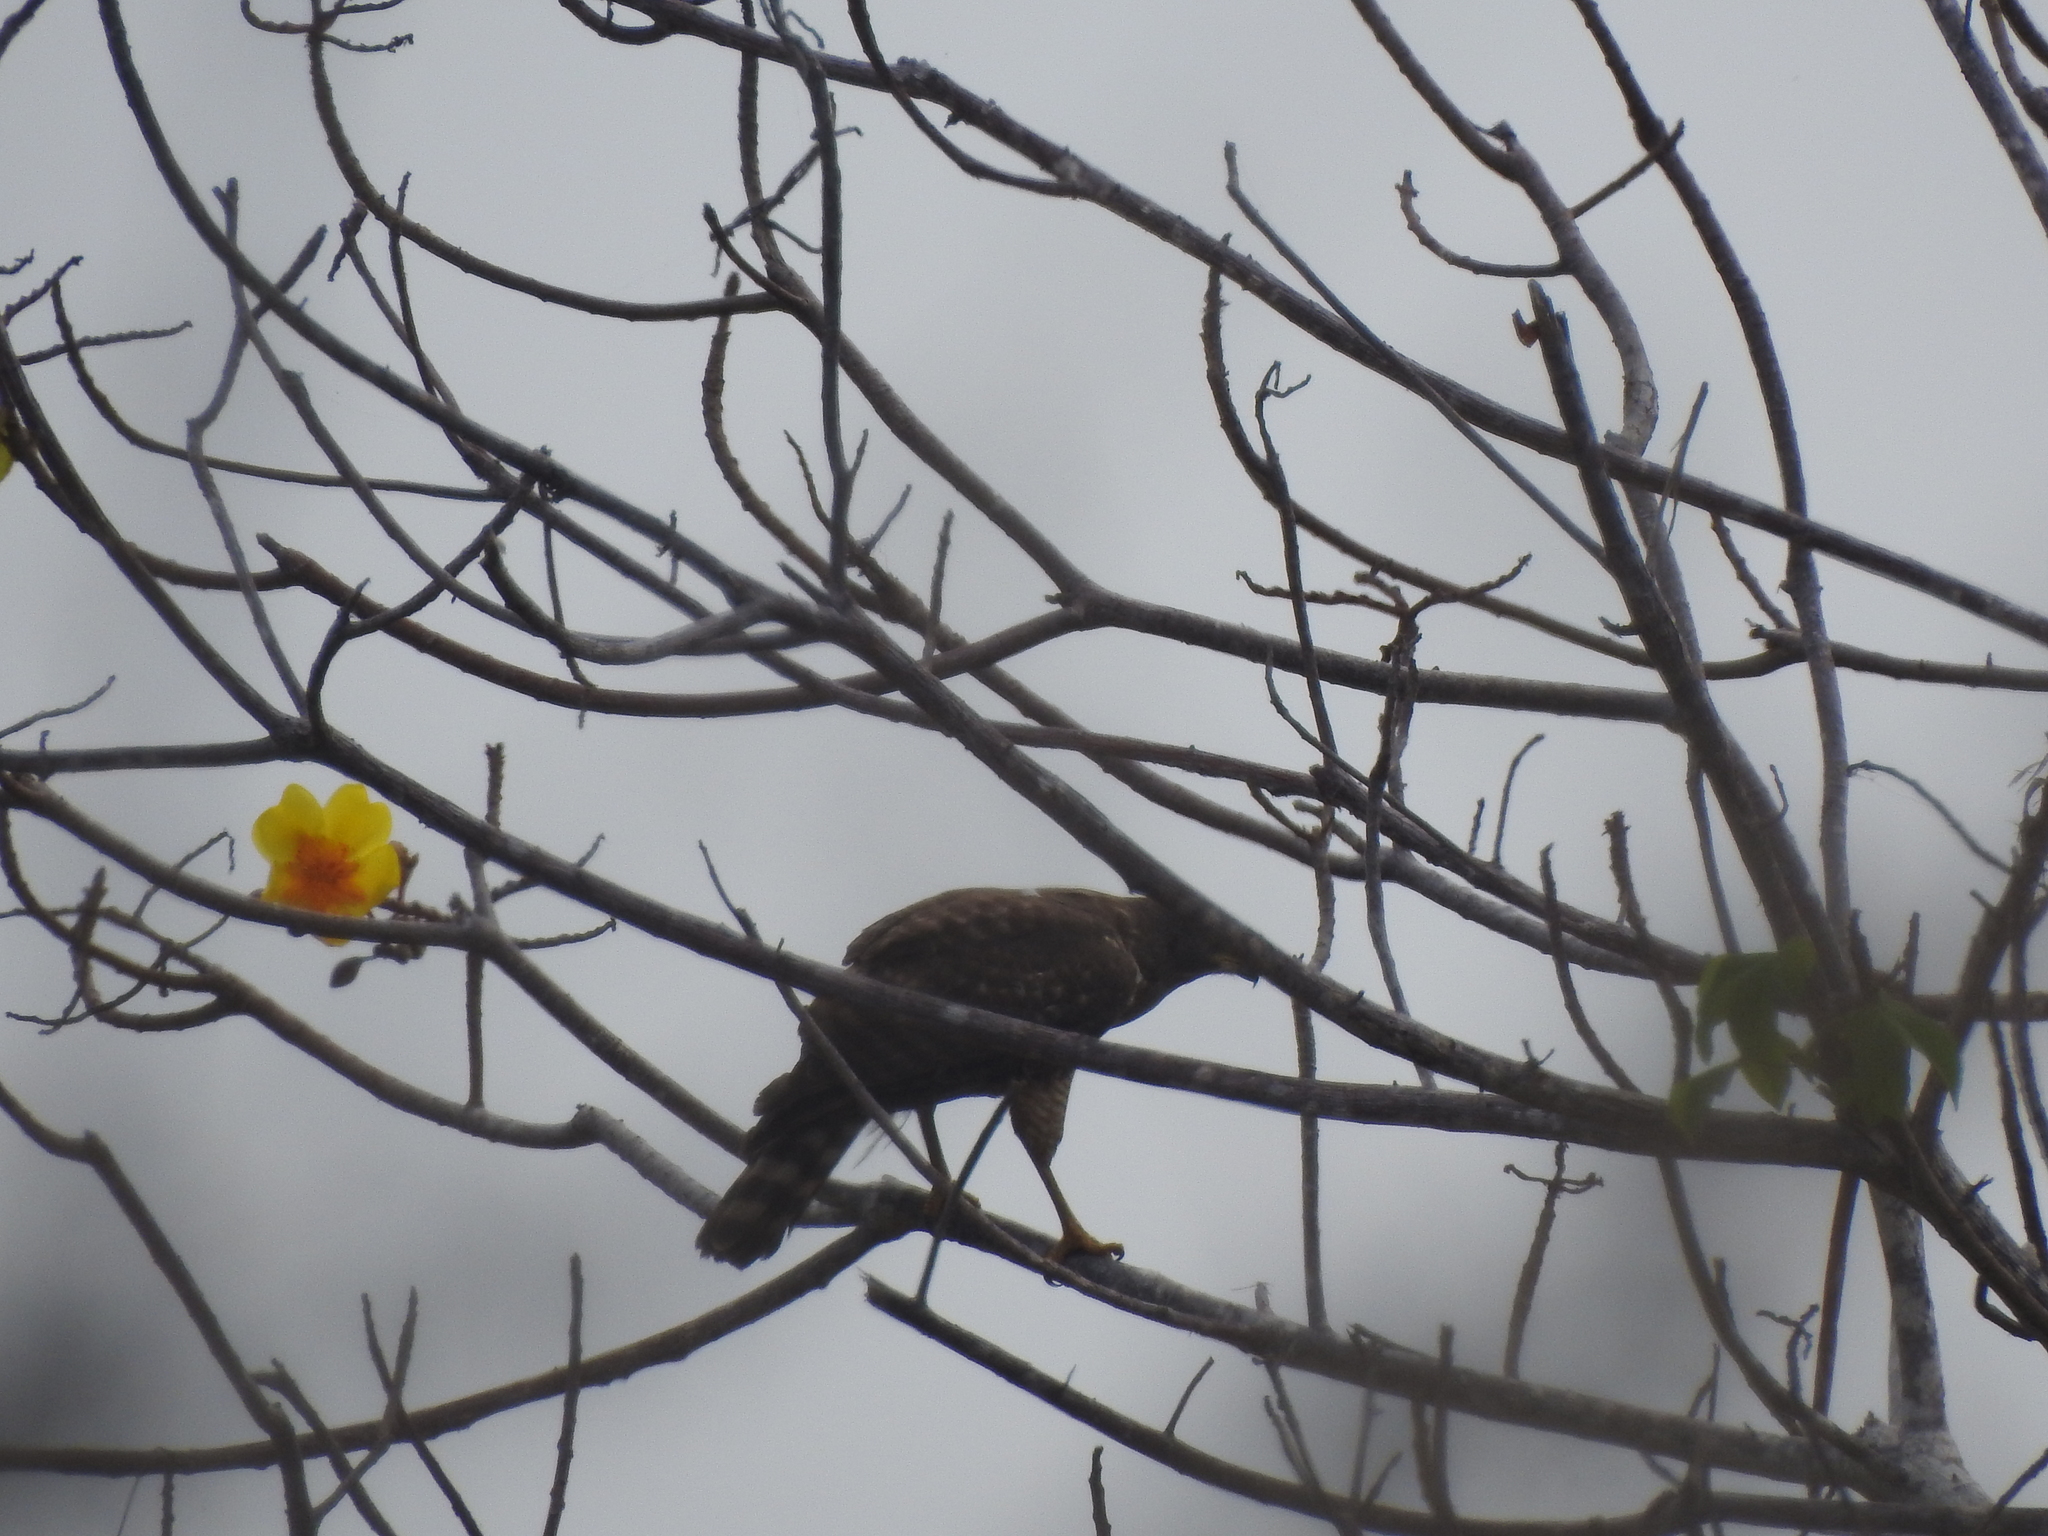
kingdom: Animalia
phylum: Chordata
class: Aves
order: Accipitriformes
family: Accipitridae
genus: Rupornis
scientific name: Rupornis magnirostris
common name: Roadside hawk
